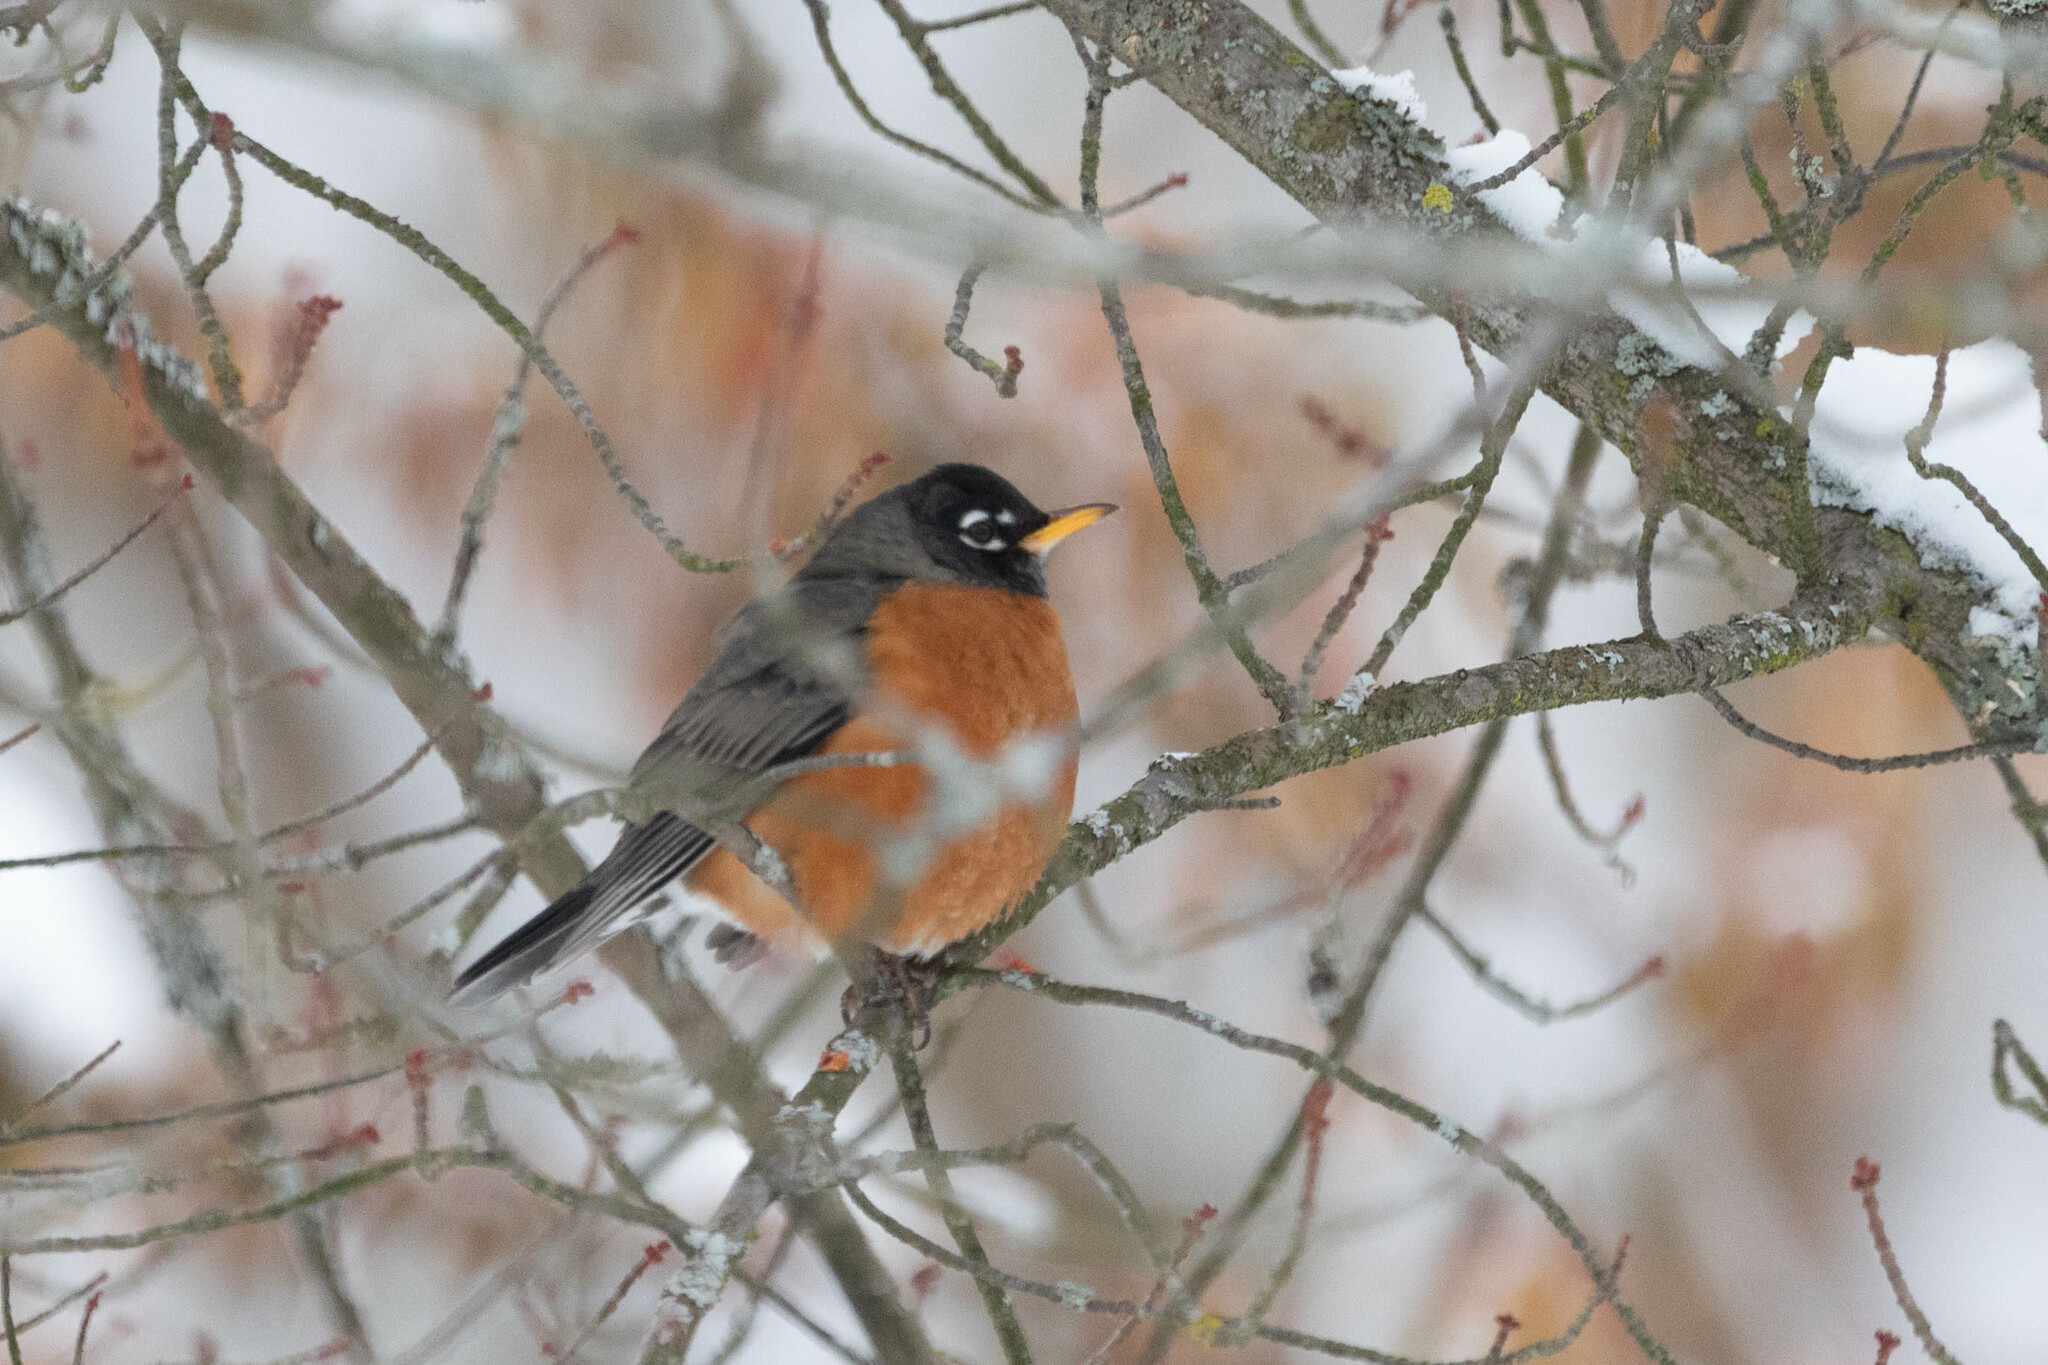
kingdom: Animalia
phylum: Chordata
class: Aves
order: Passeriformes
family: Turdidae
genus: Turdus
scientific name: Turdus migratorius
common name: American robin
